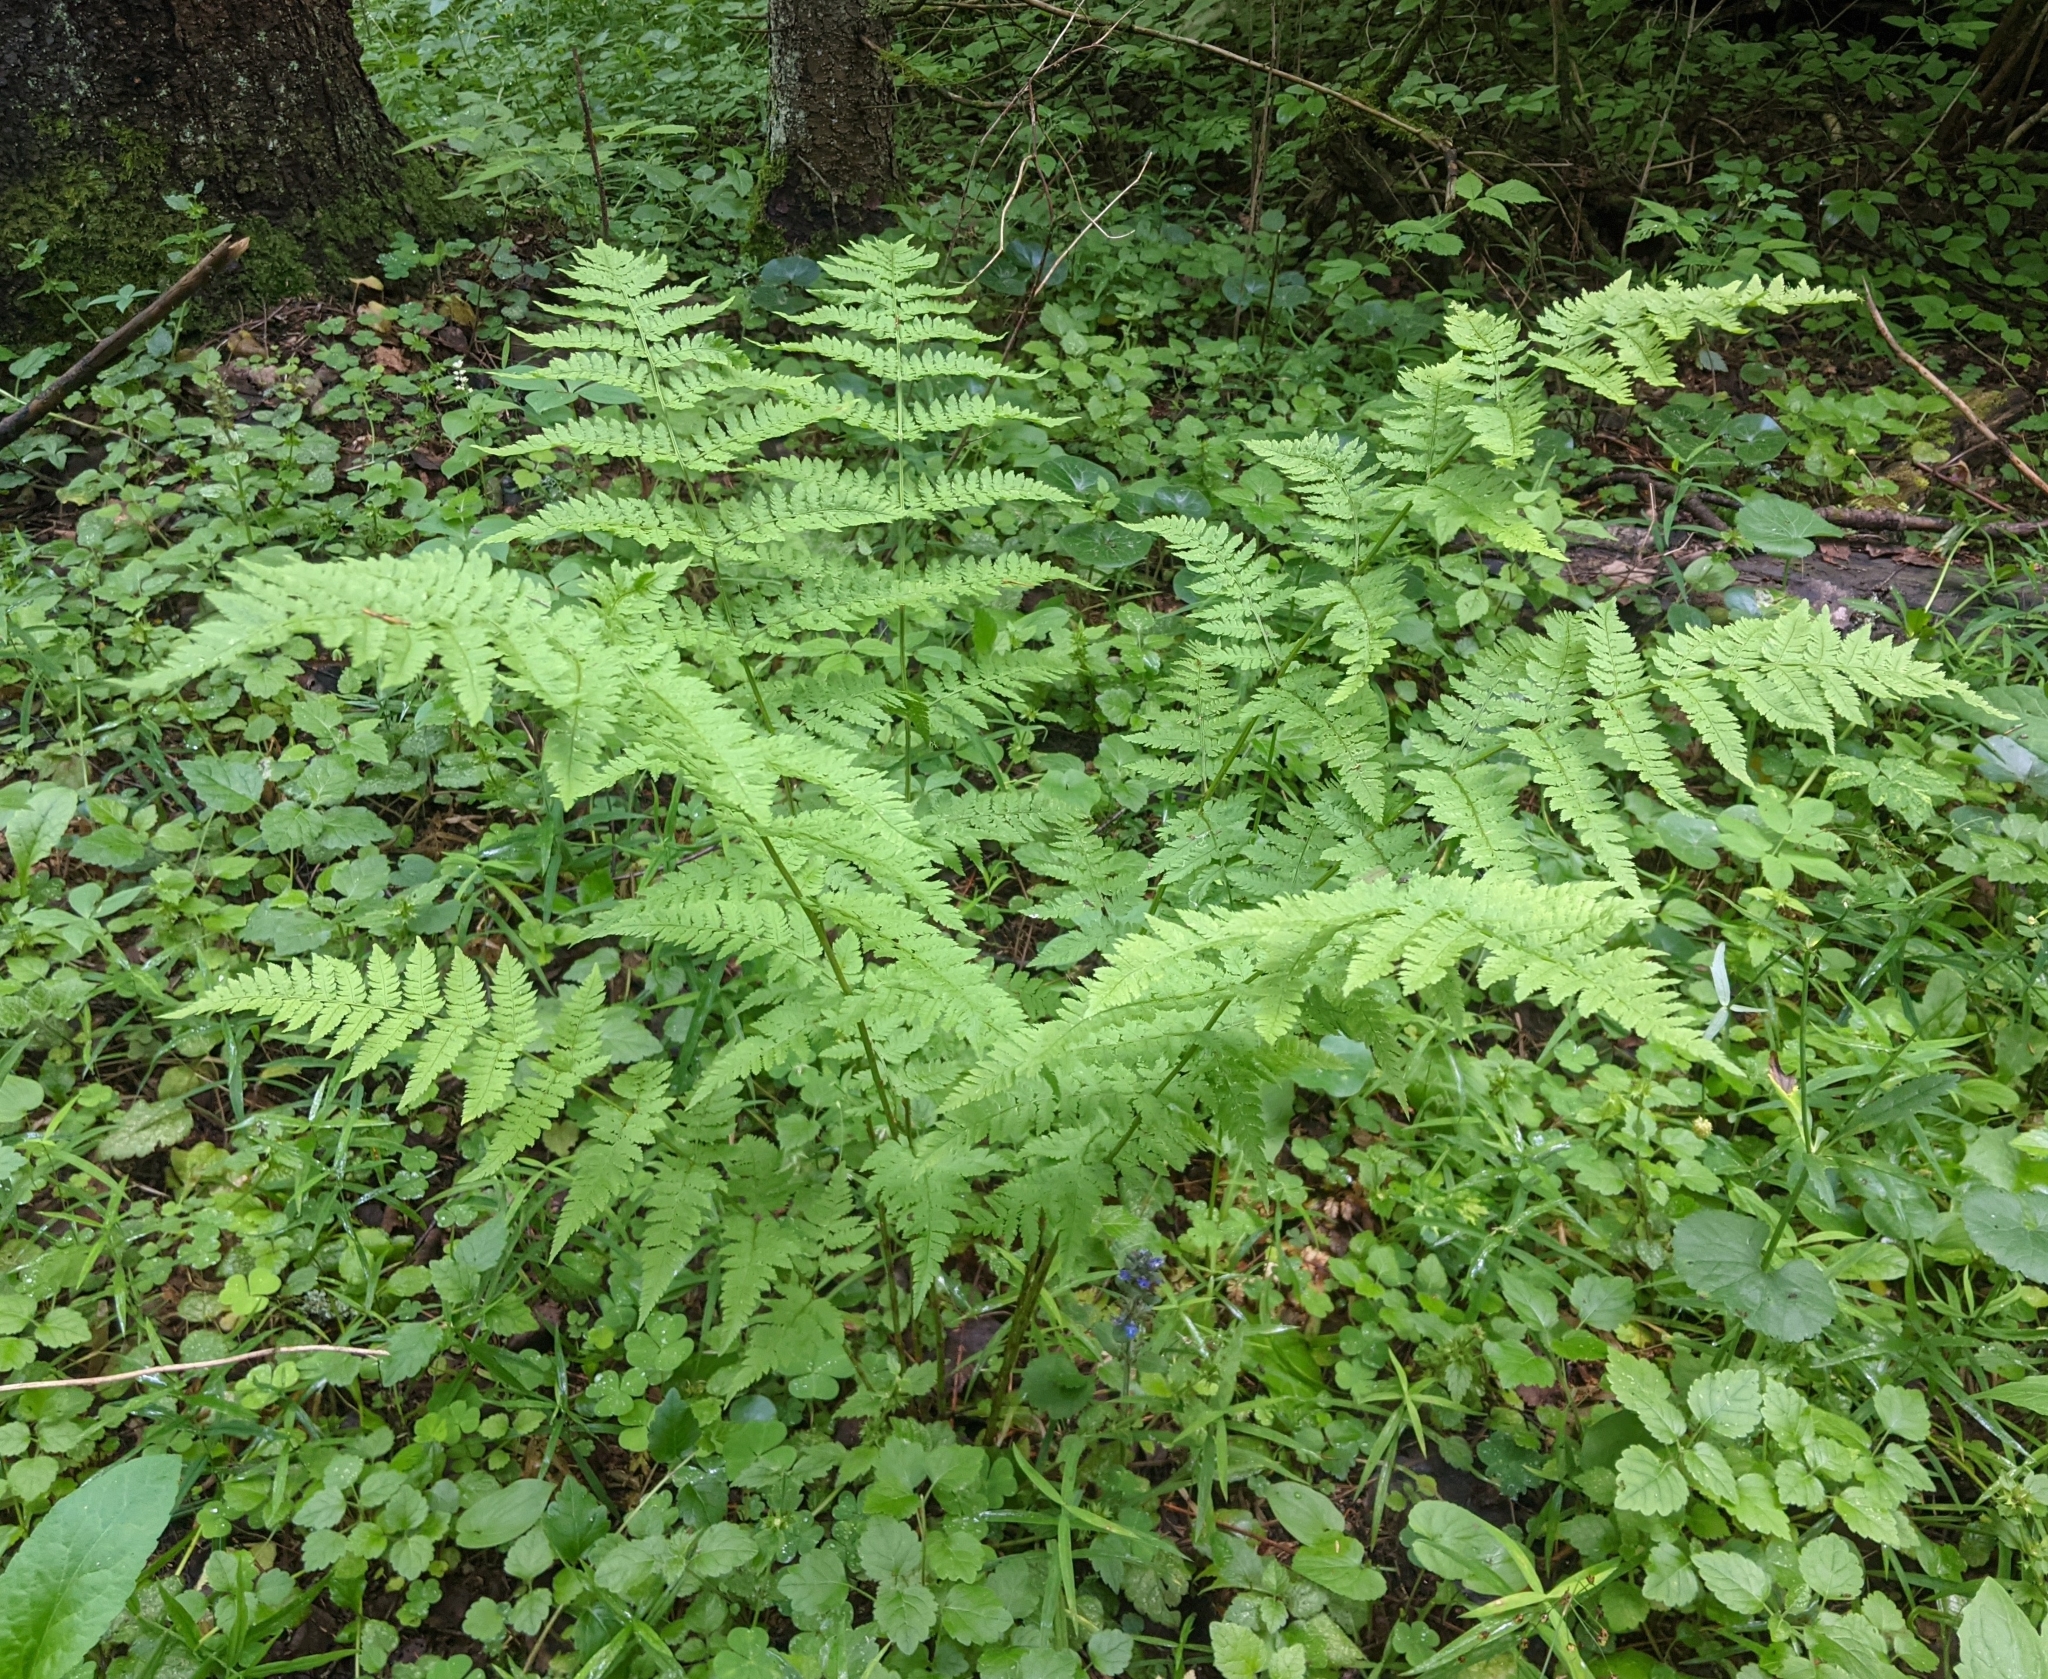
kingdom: Plantae
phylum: Tracheophyta
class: Polypodiopsida
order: Polypodiales
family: Dryopteridaceae
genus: Dryopteris
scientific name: Dryopteris carthusiana
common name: Narrow buckler-fern
